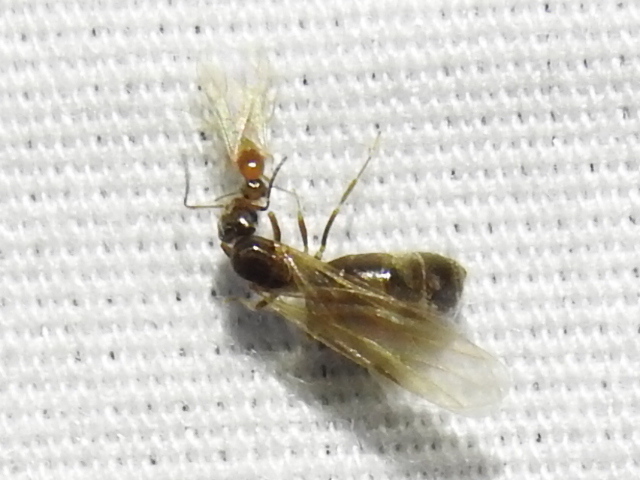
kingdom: Animalia
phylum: Arthropoda
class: Insecta
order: Hymenoptera
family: Formicidae
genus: Brachymyrmex
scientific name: Brachymyrmex patagonicus
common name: Dark rover ant
